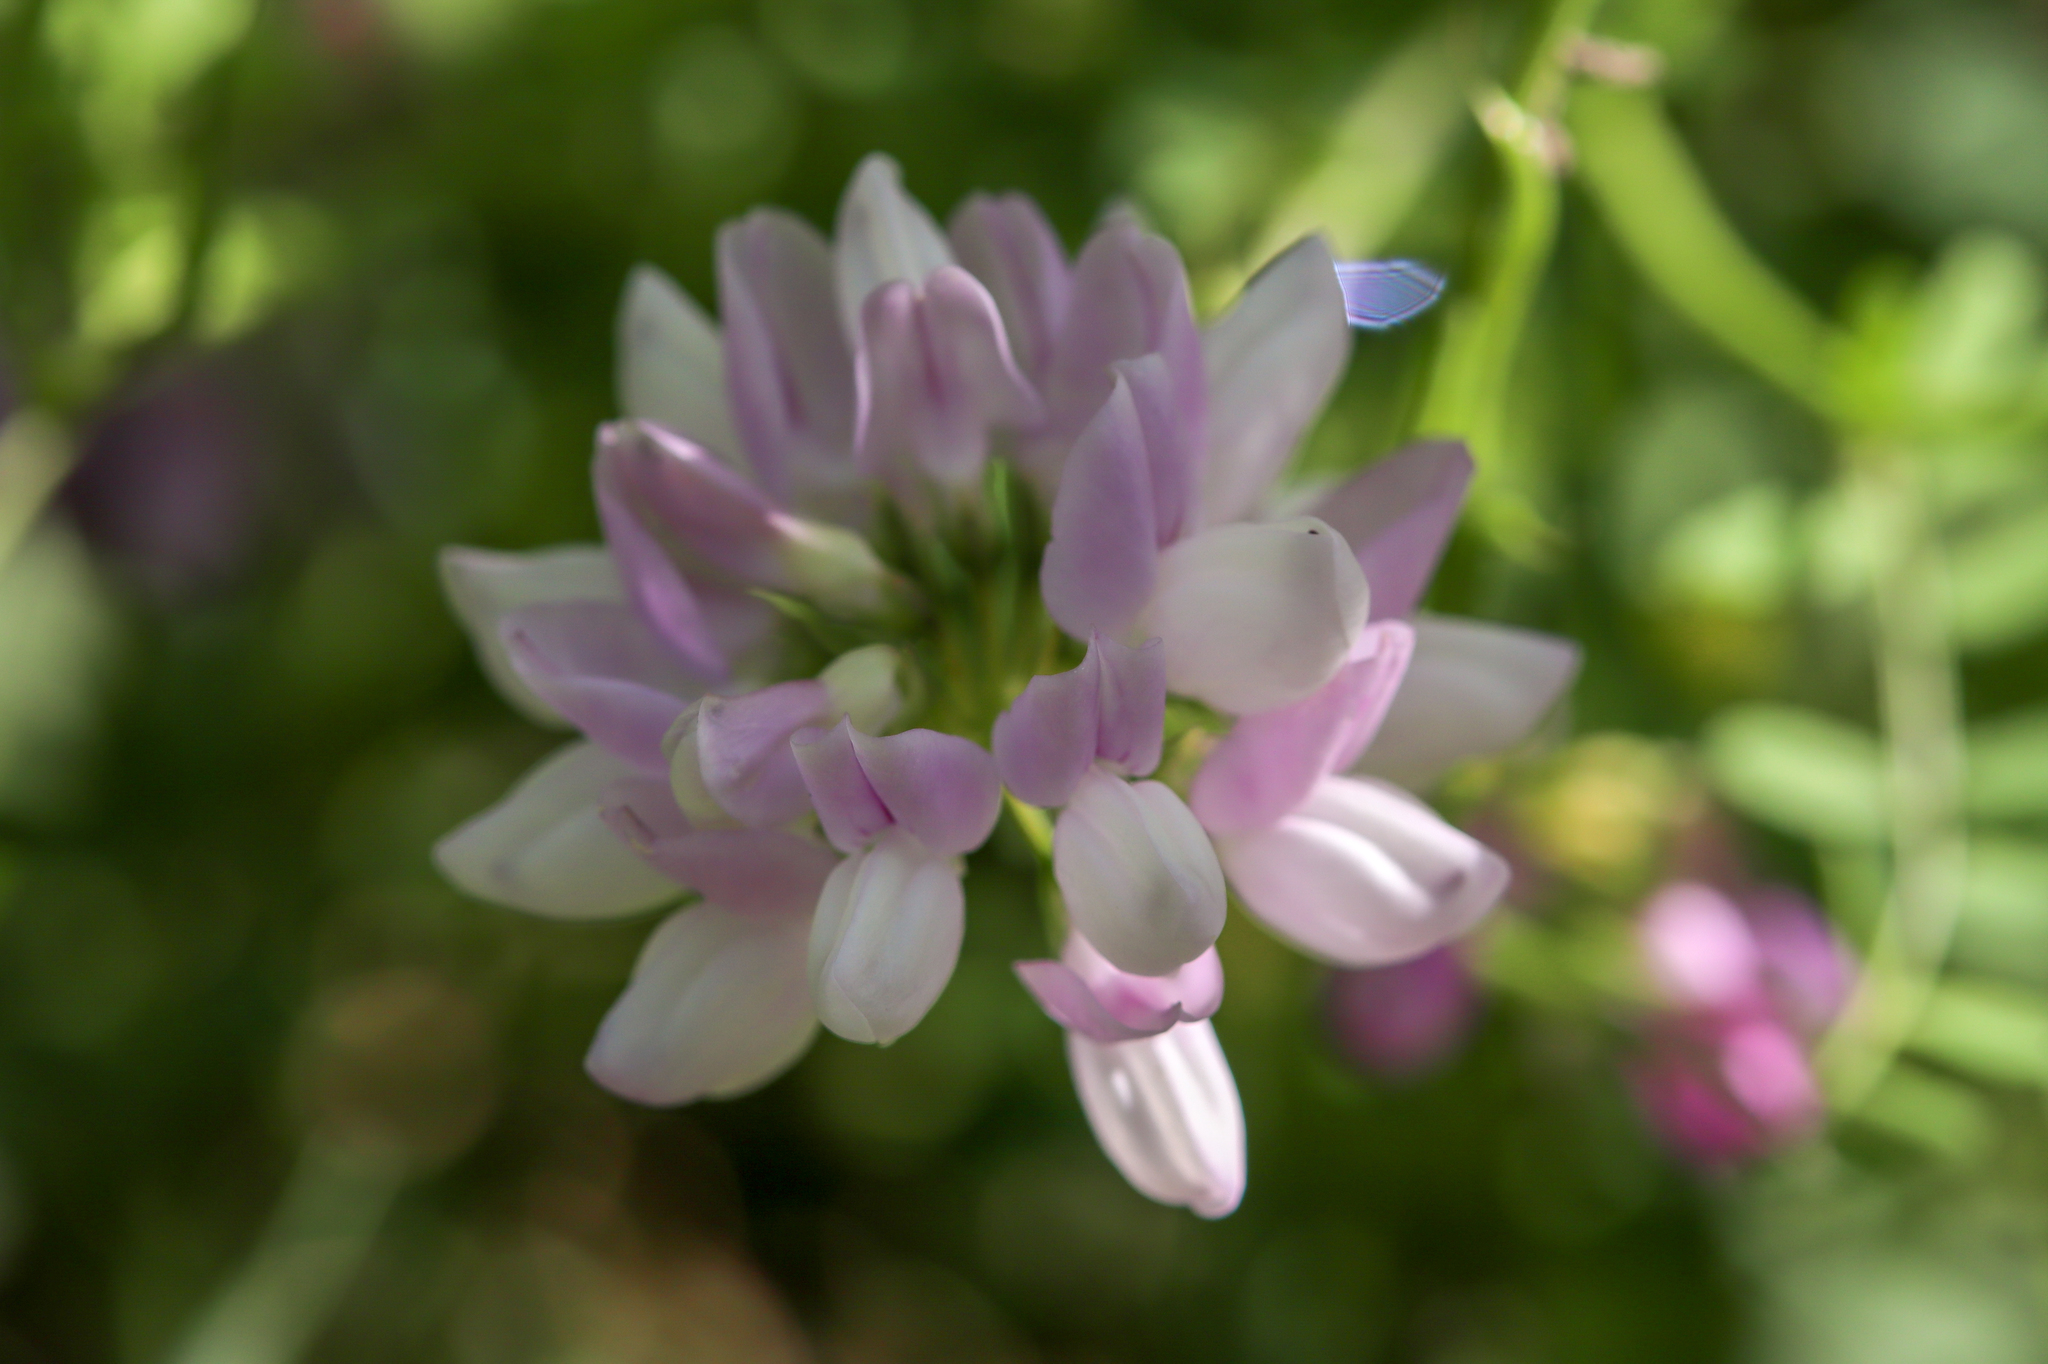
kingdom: Plantae
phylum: Tracheophyta
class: Magnoliopsida
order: Fabales
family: Fabaceae
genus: Coronilla
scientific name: Coronilla varia
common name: Crownvetch
